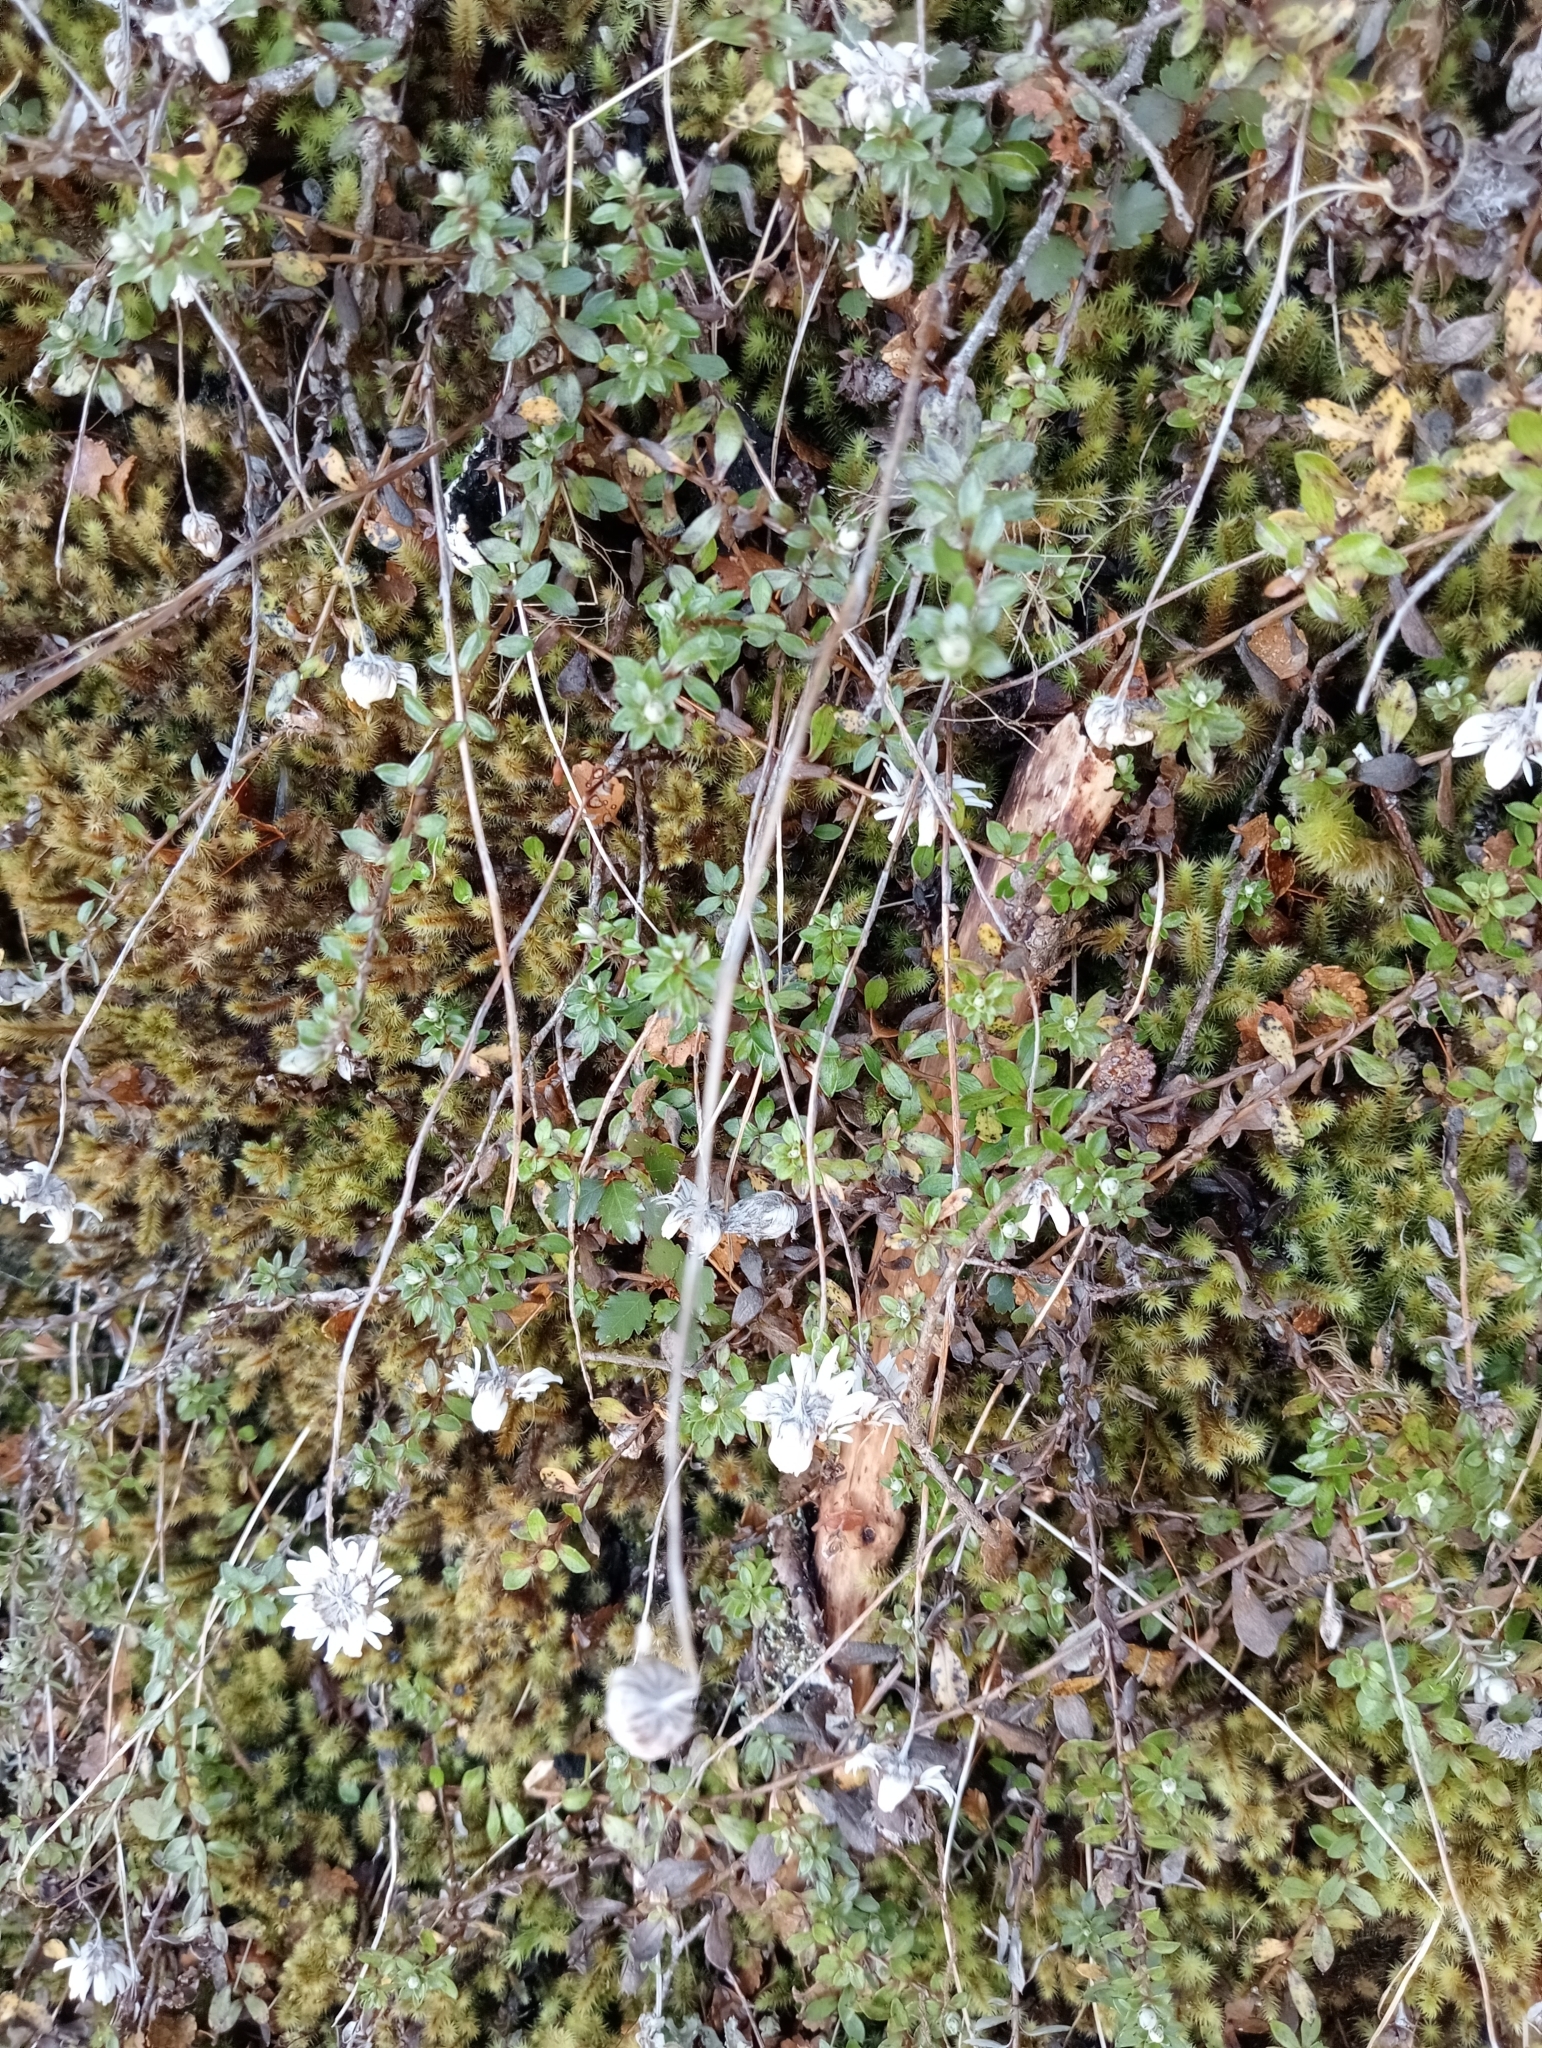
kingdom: Plantae
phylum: Tracheophyta
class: Magnoliopsida
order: Asterales
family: Asteraceae
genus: Anaphalioides
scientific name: Anaphalioides bellidioides
